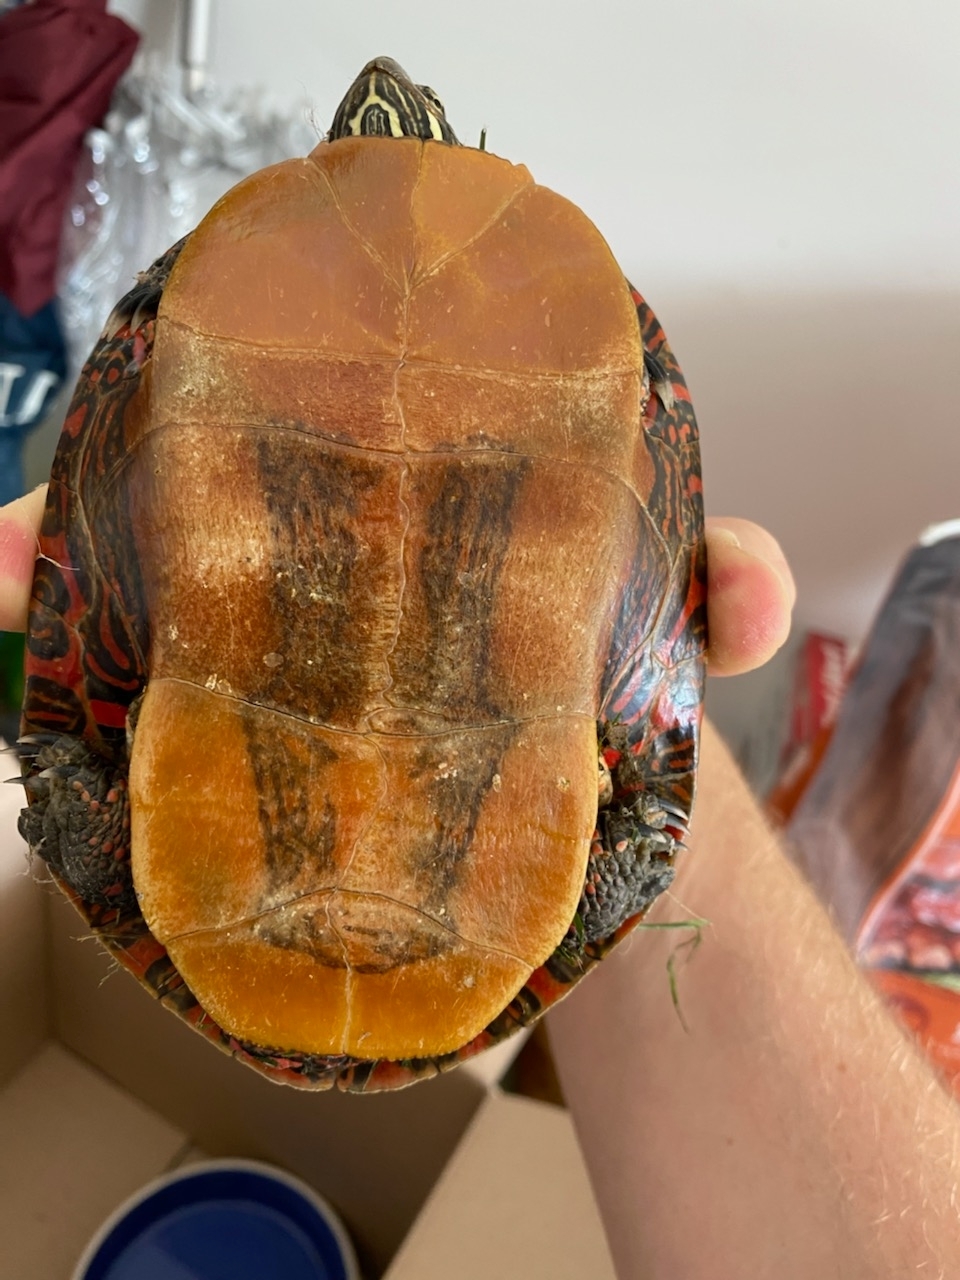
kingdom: Animalia
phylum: Chordata
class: Testudines
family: Emydidae
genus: Chrysemys
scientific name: Chrysemys picta
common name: Painted turtle
